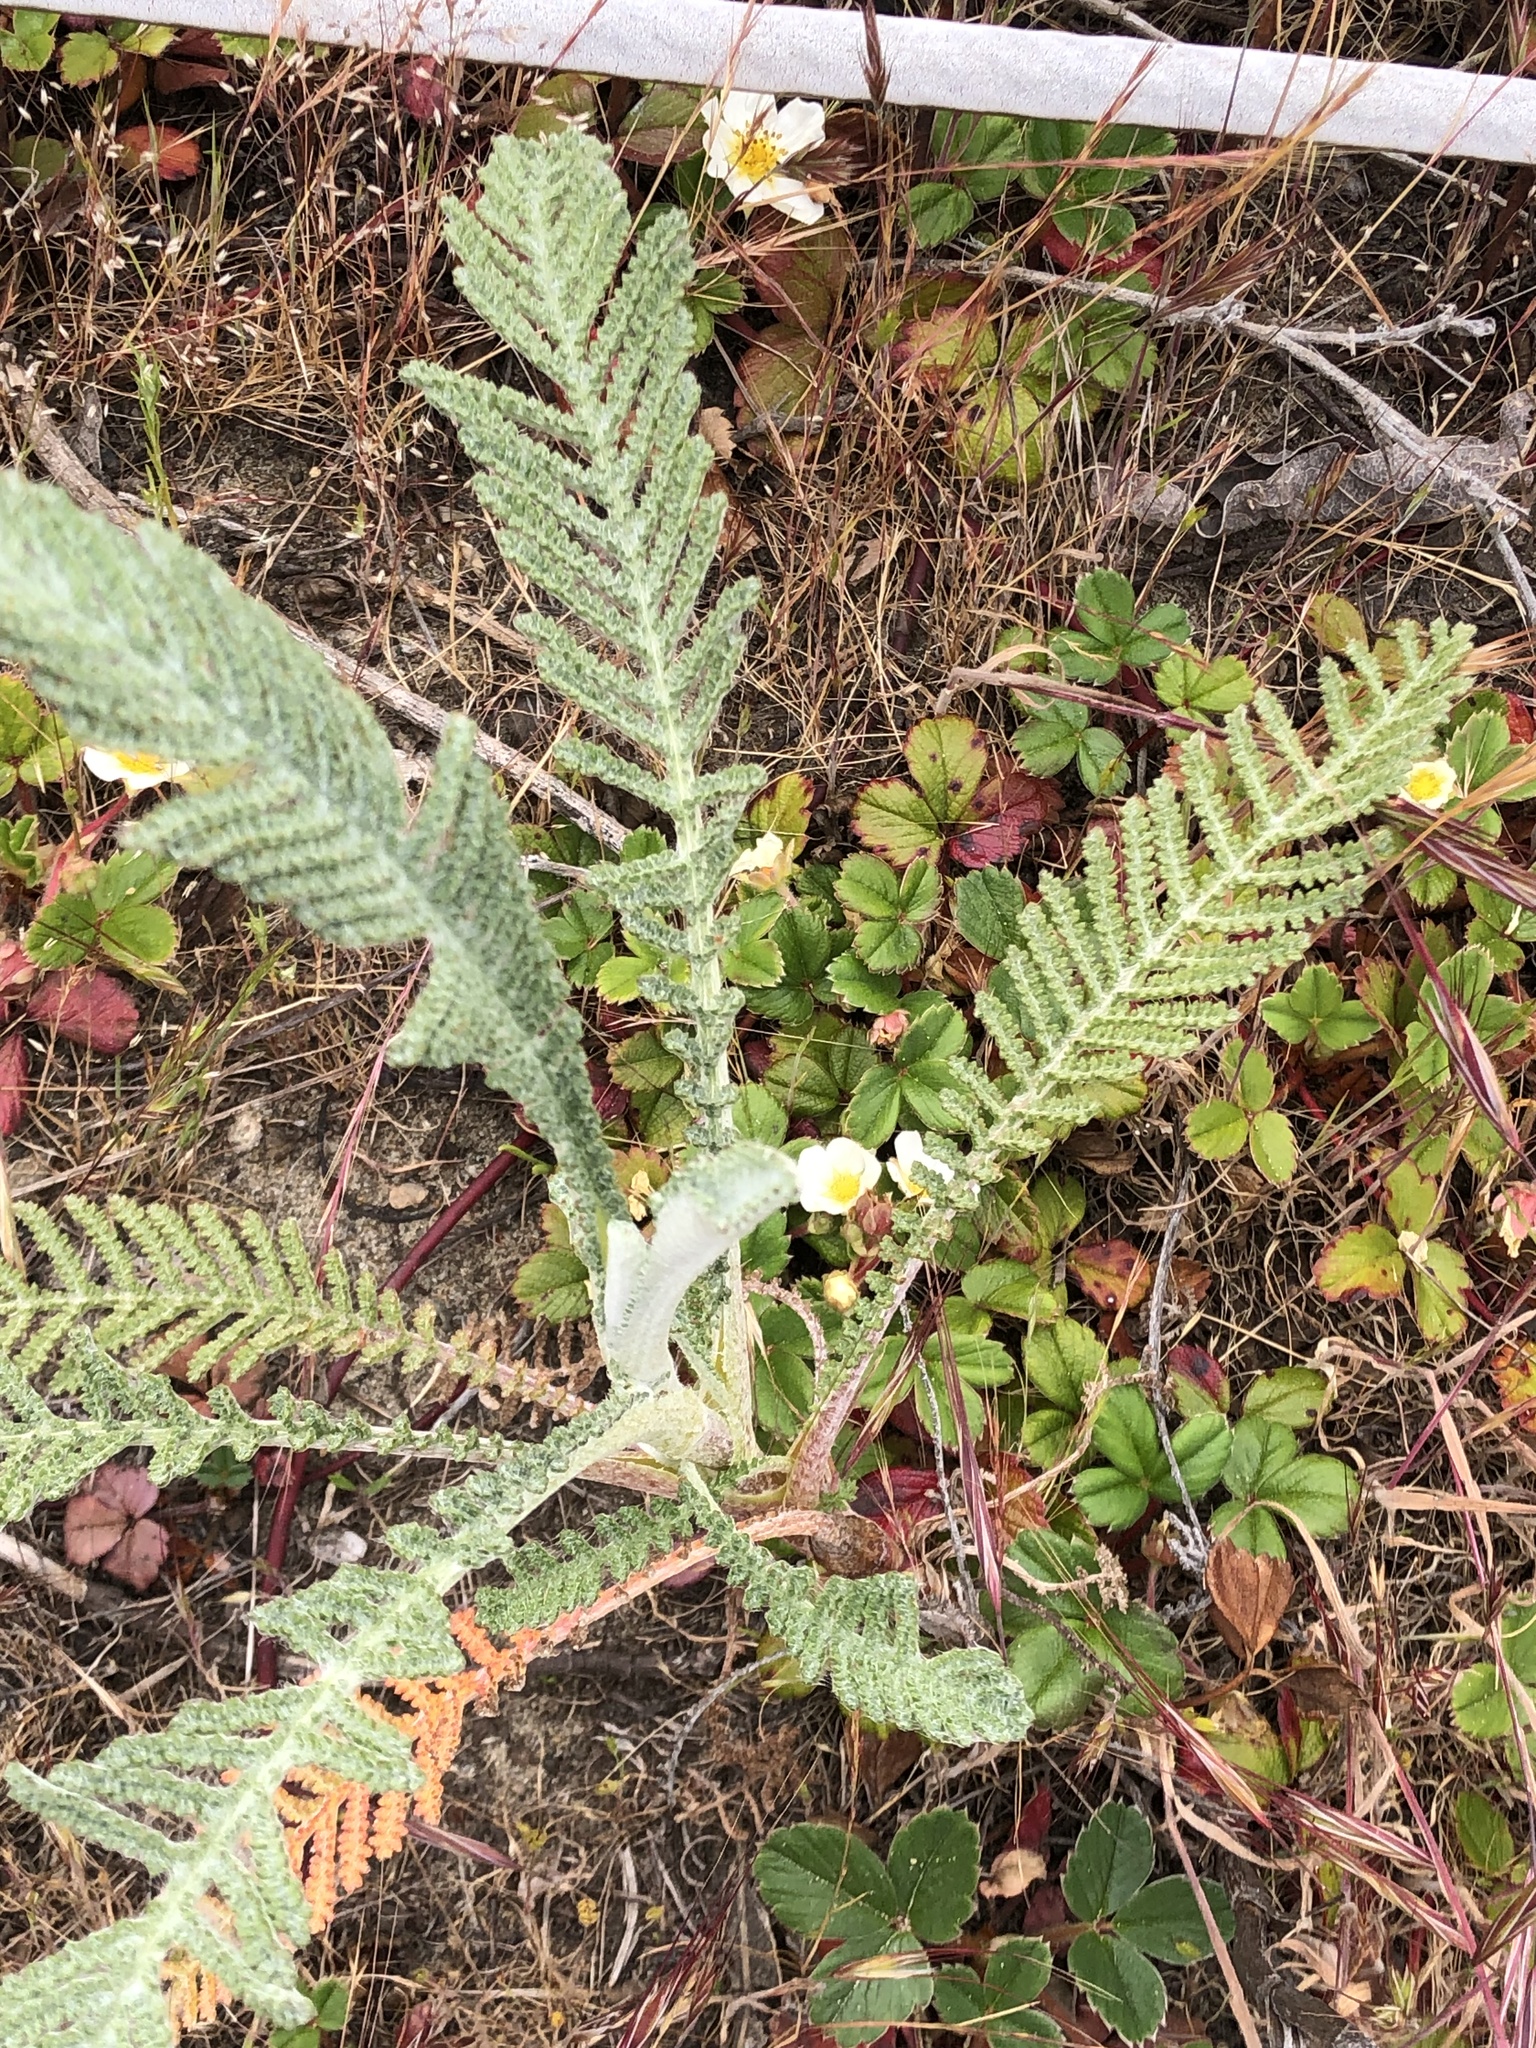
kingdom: Plantae
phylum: Tracheophyta
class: Magnoliopsida
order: Asterales
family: Asteraceae
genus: Tanacetum
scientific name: Tanacetum bipinnatum
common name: Dwarf tansy
